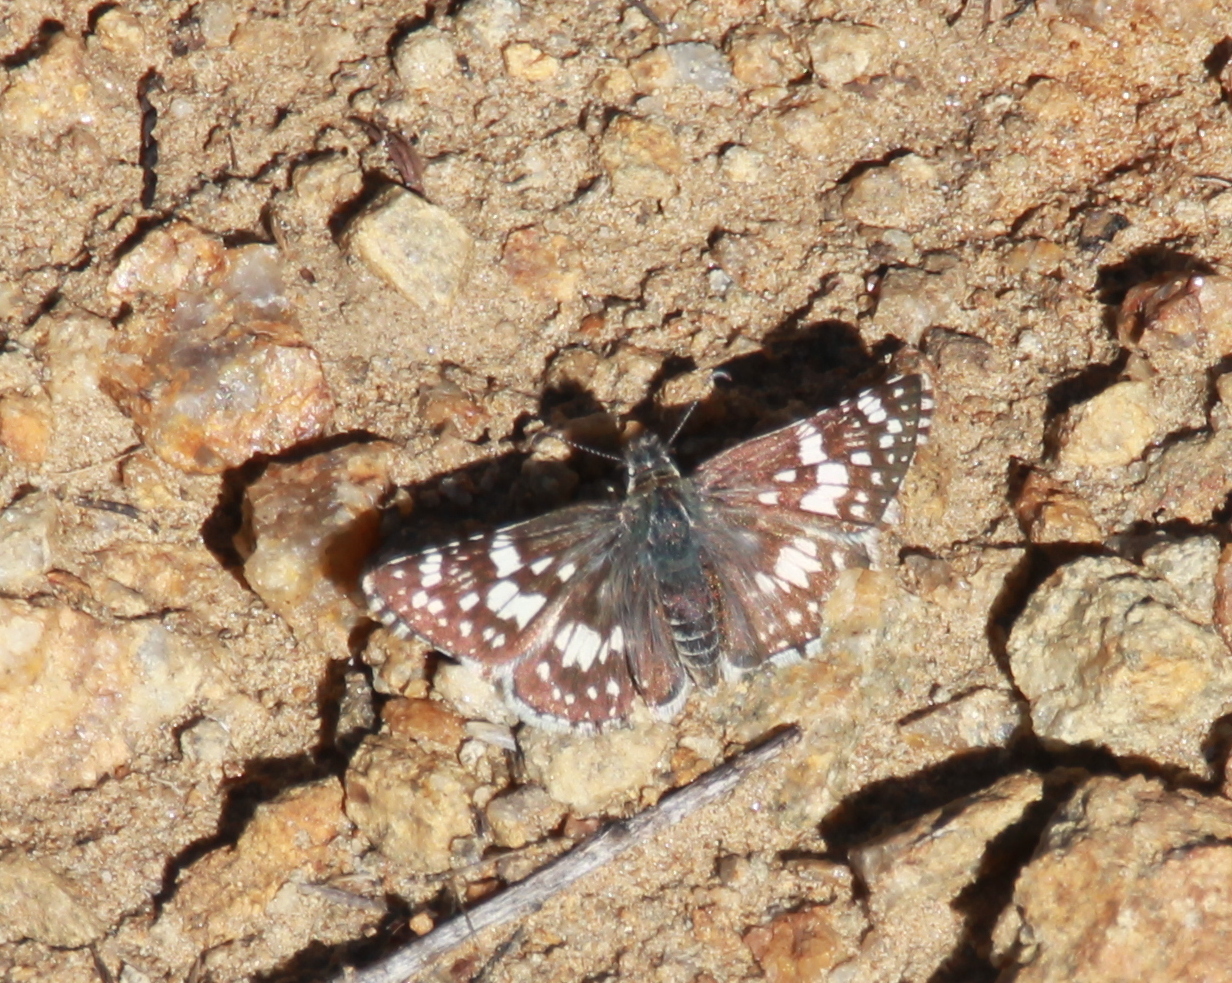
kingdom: Animalia
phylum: Arthropoda
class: Insecta
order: Lepidoptera
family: Hesperiidae
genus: Burnsius
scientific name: Burnsius albezens
